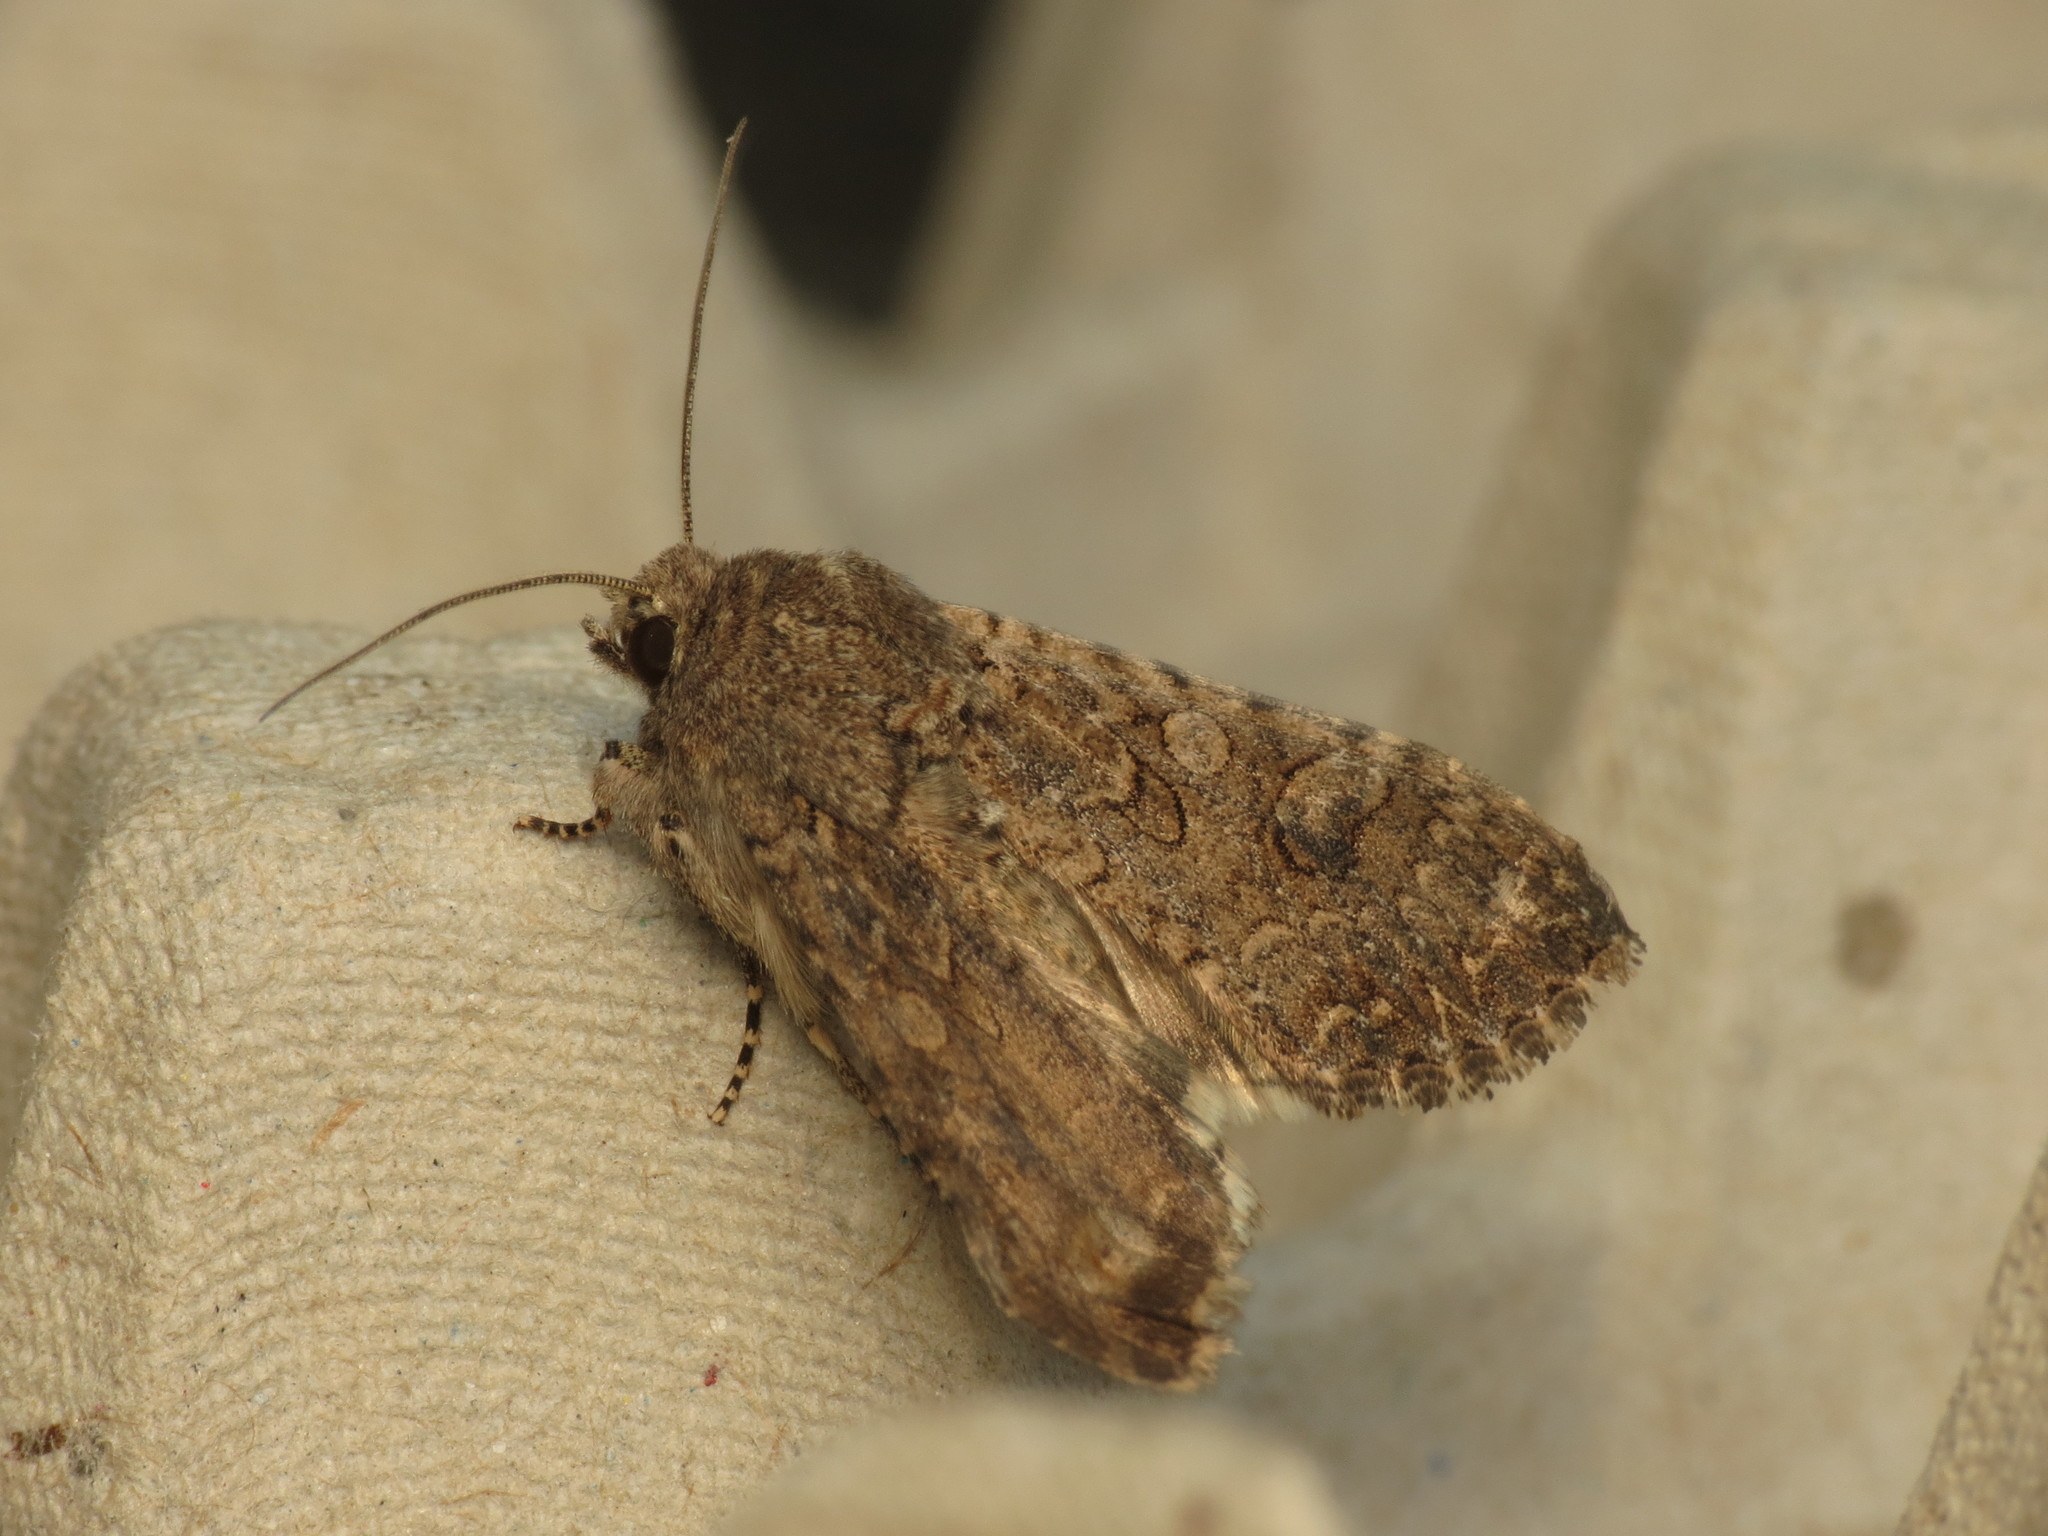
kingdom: Animalia
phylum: Arthropoda
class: Insecta
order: Lepidoptera
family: Noctuidae
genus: Anarta
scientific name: Anarta trifolii
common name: Clover cutworm moth
